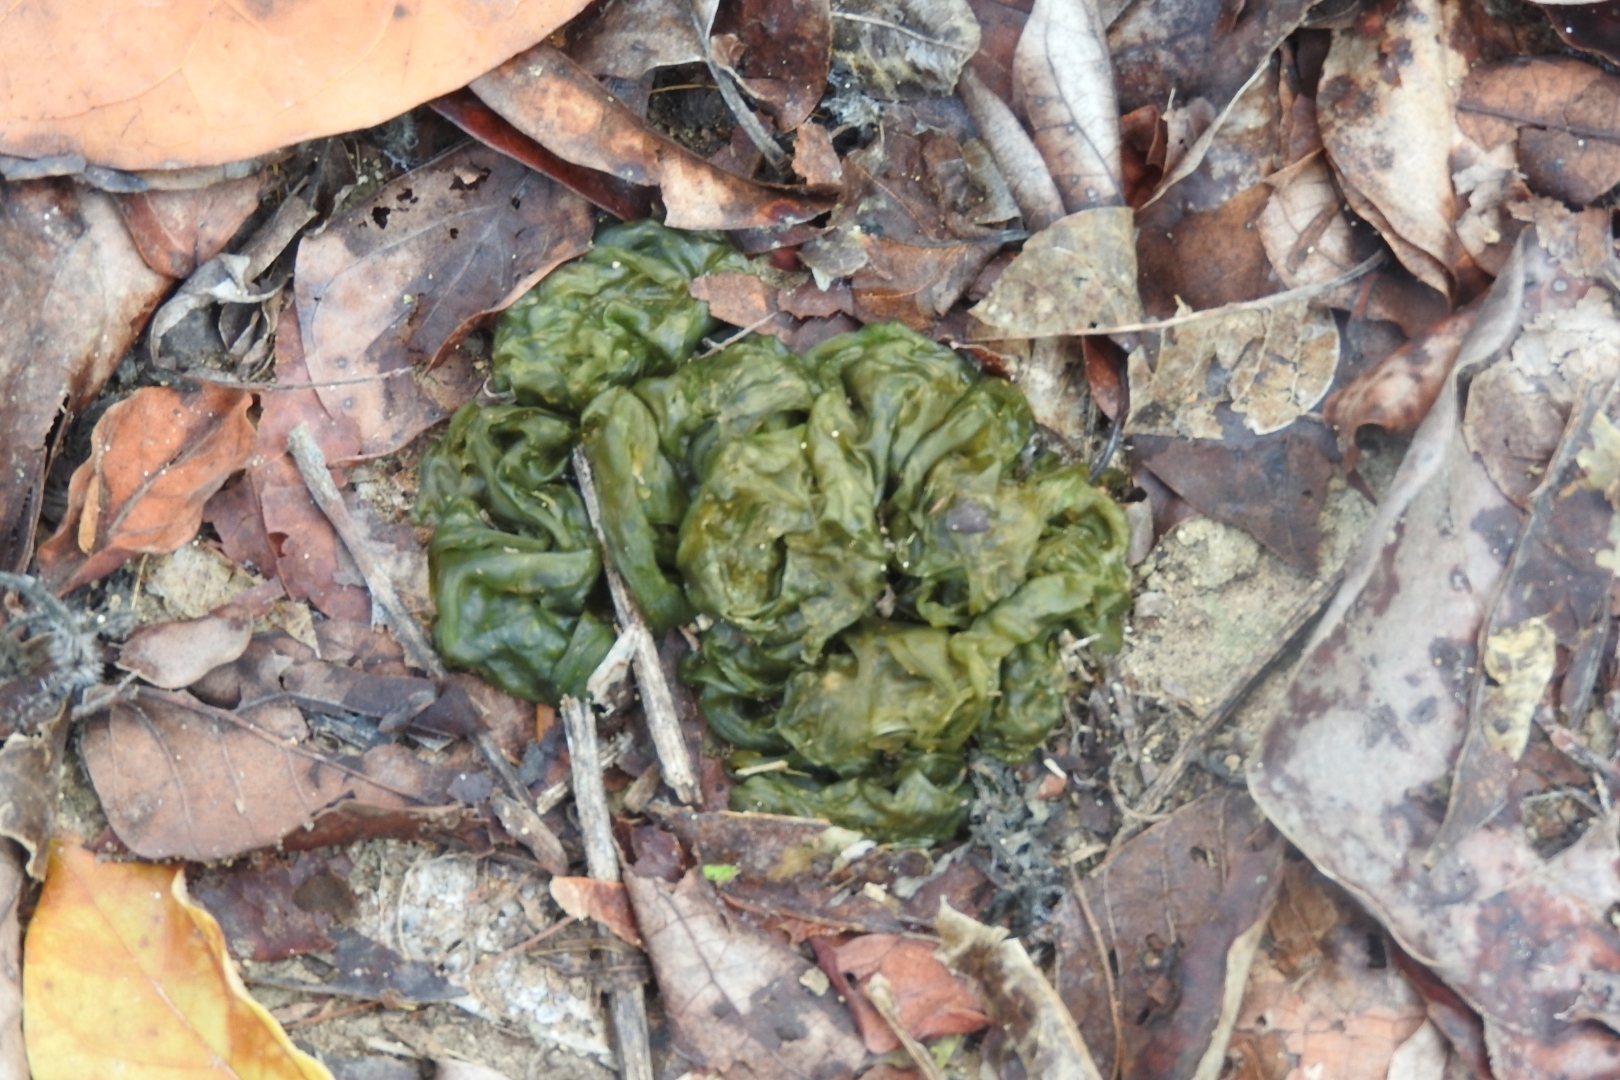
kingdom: Bacteria
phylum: Cyanobacteria
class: Cyanobacteriia
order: Cyanobacteriales
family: Nostocaceae
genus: Nostoc
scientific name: Nostoc commune
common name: Star jelly
